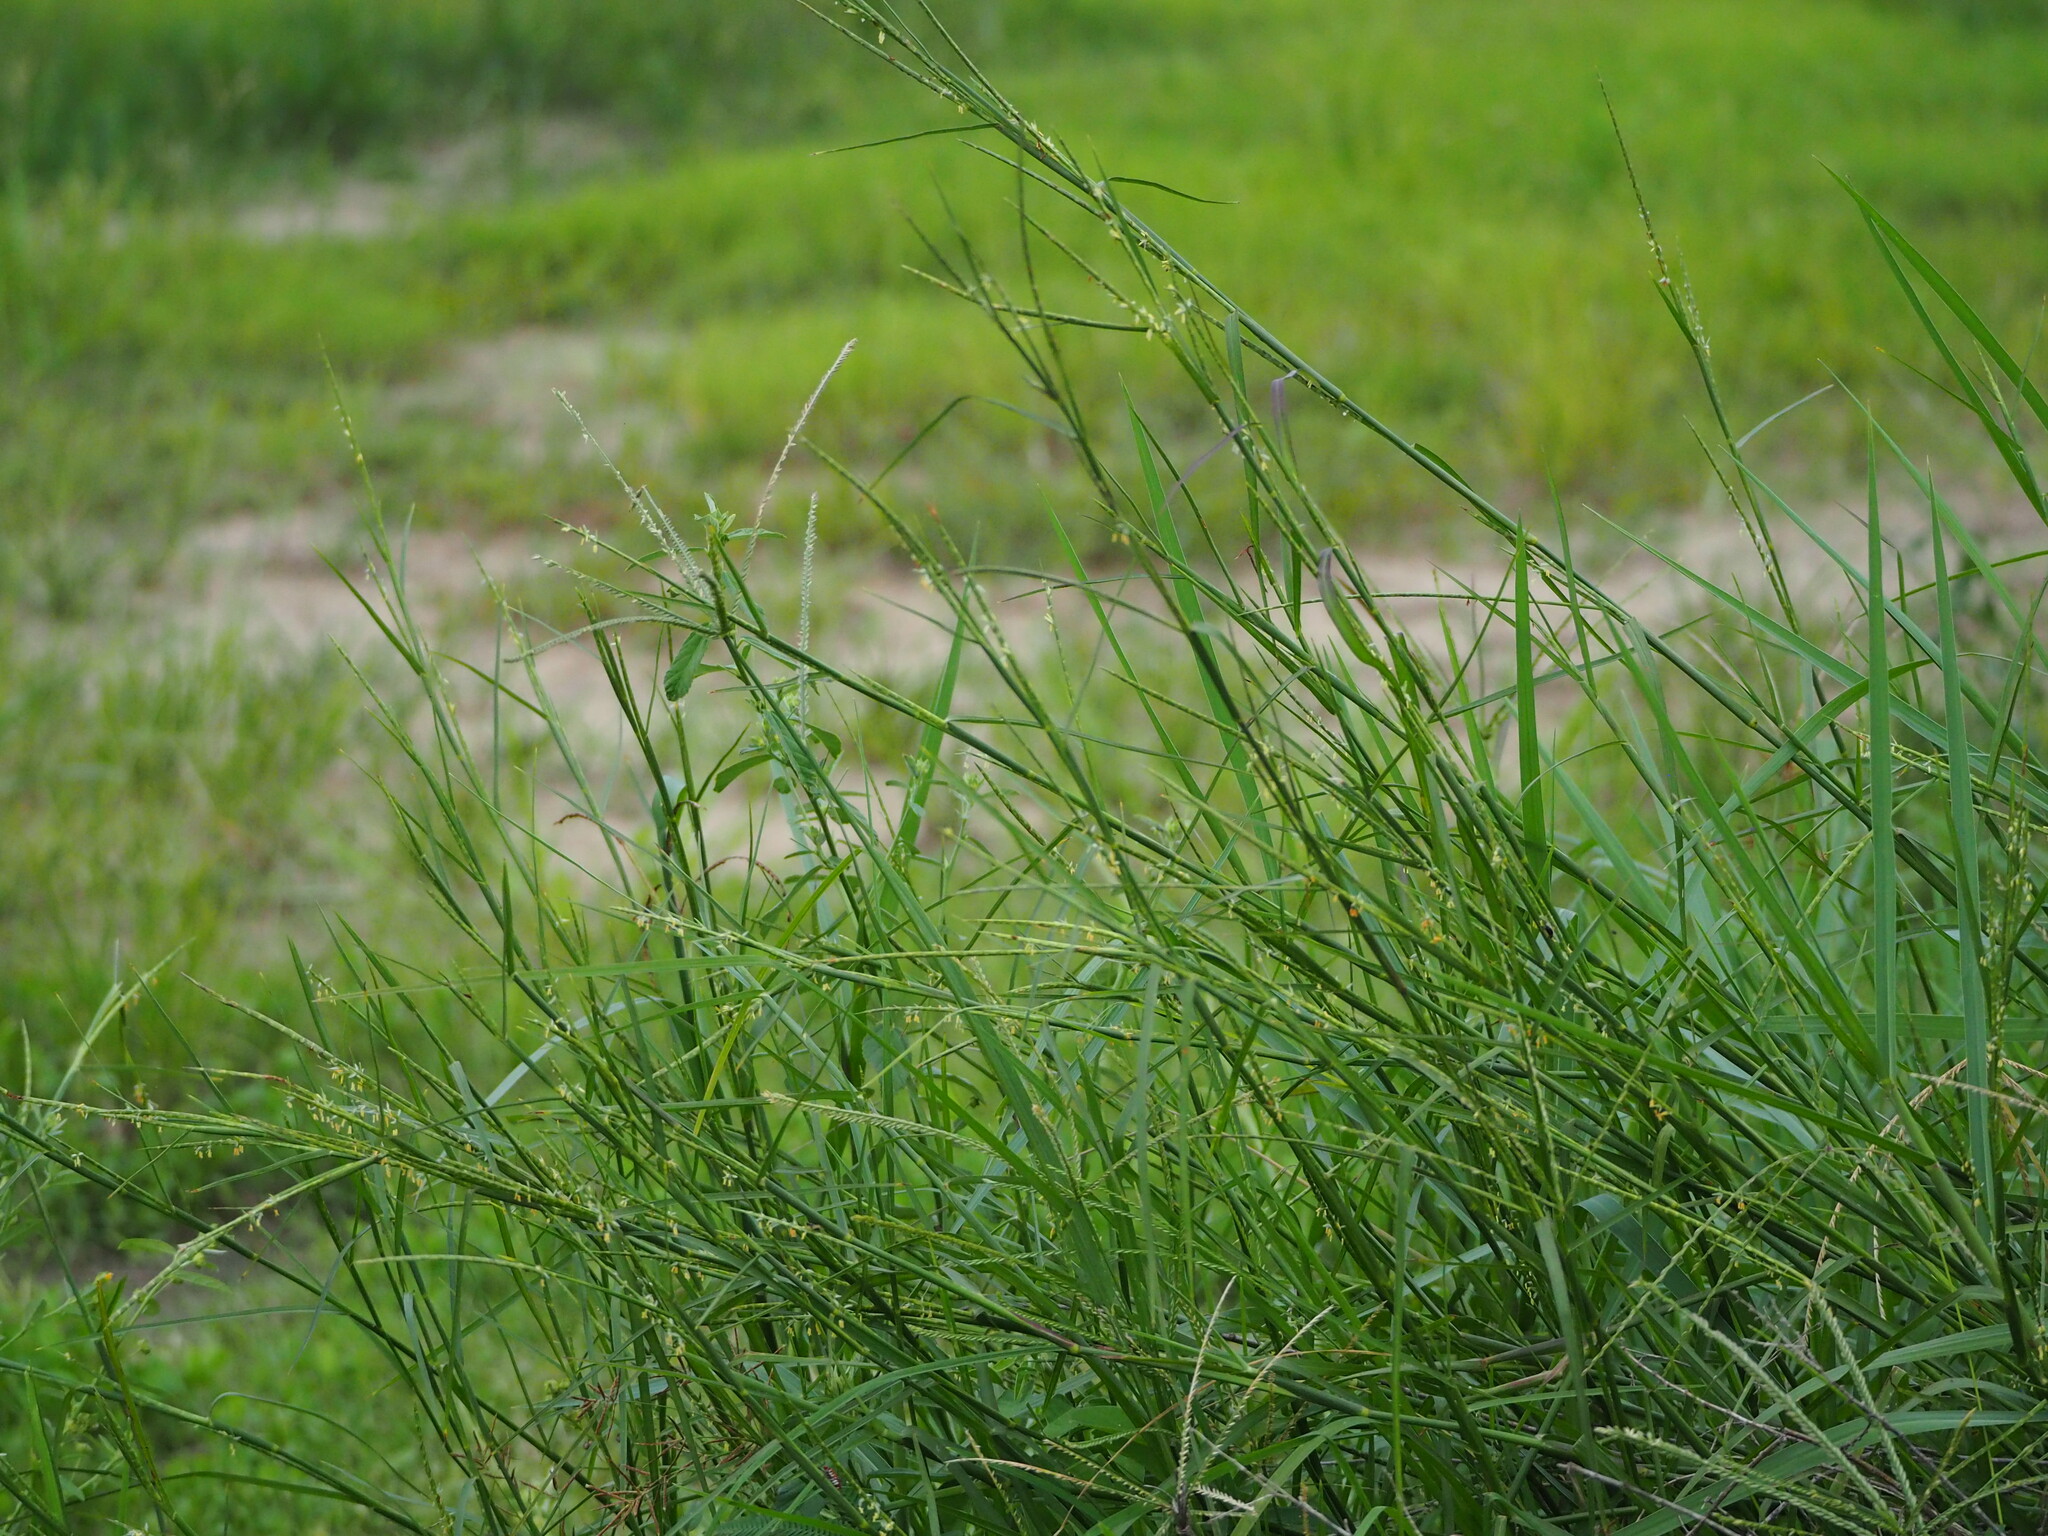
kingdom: Plantae
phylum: Tracheophyta
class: Liliopsida
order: Poales
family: Poaceae
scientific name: Poaceae
